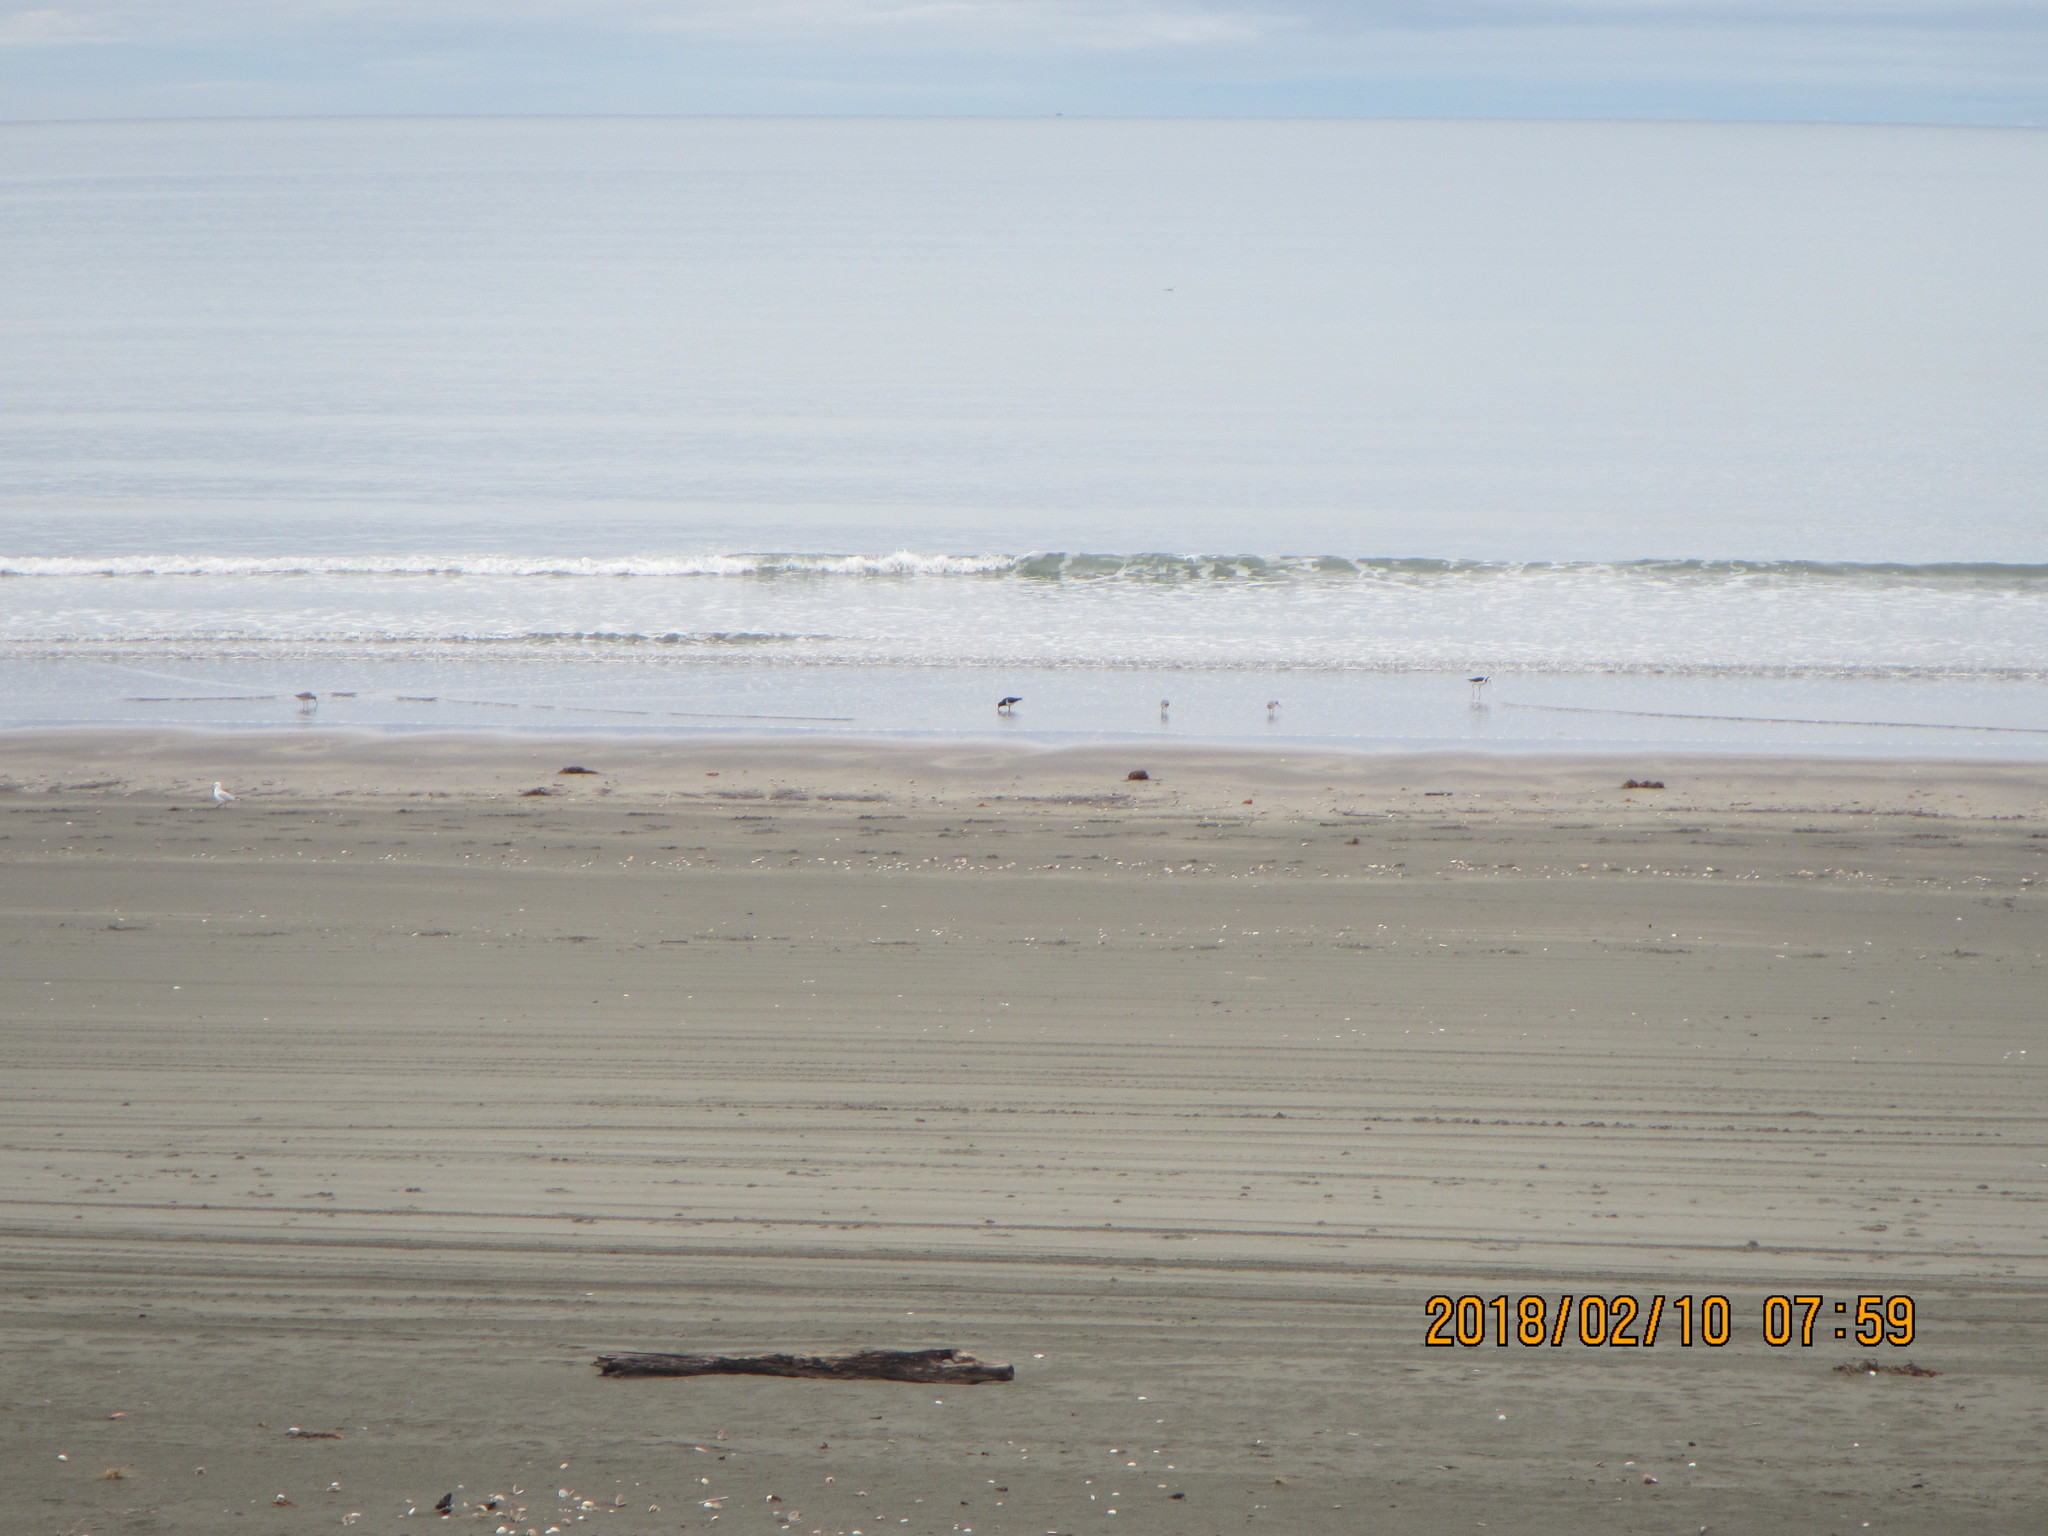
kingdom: Animalia
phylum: Chordata
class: Aves
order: Charadriiformes
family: Scolopacidae
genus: Limosa
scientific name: Limosa lapponica
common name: Bar-tailed godwit
